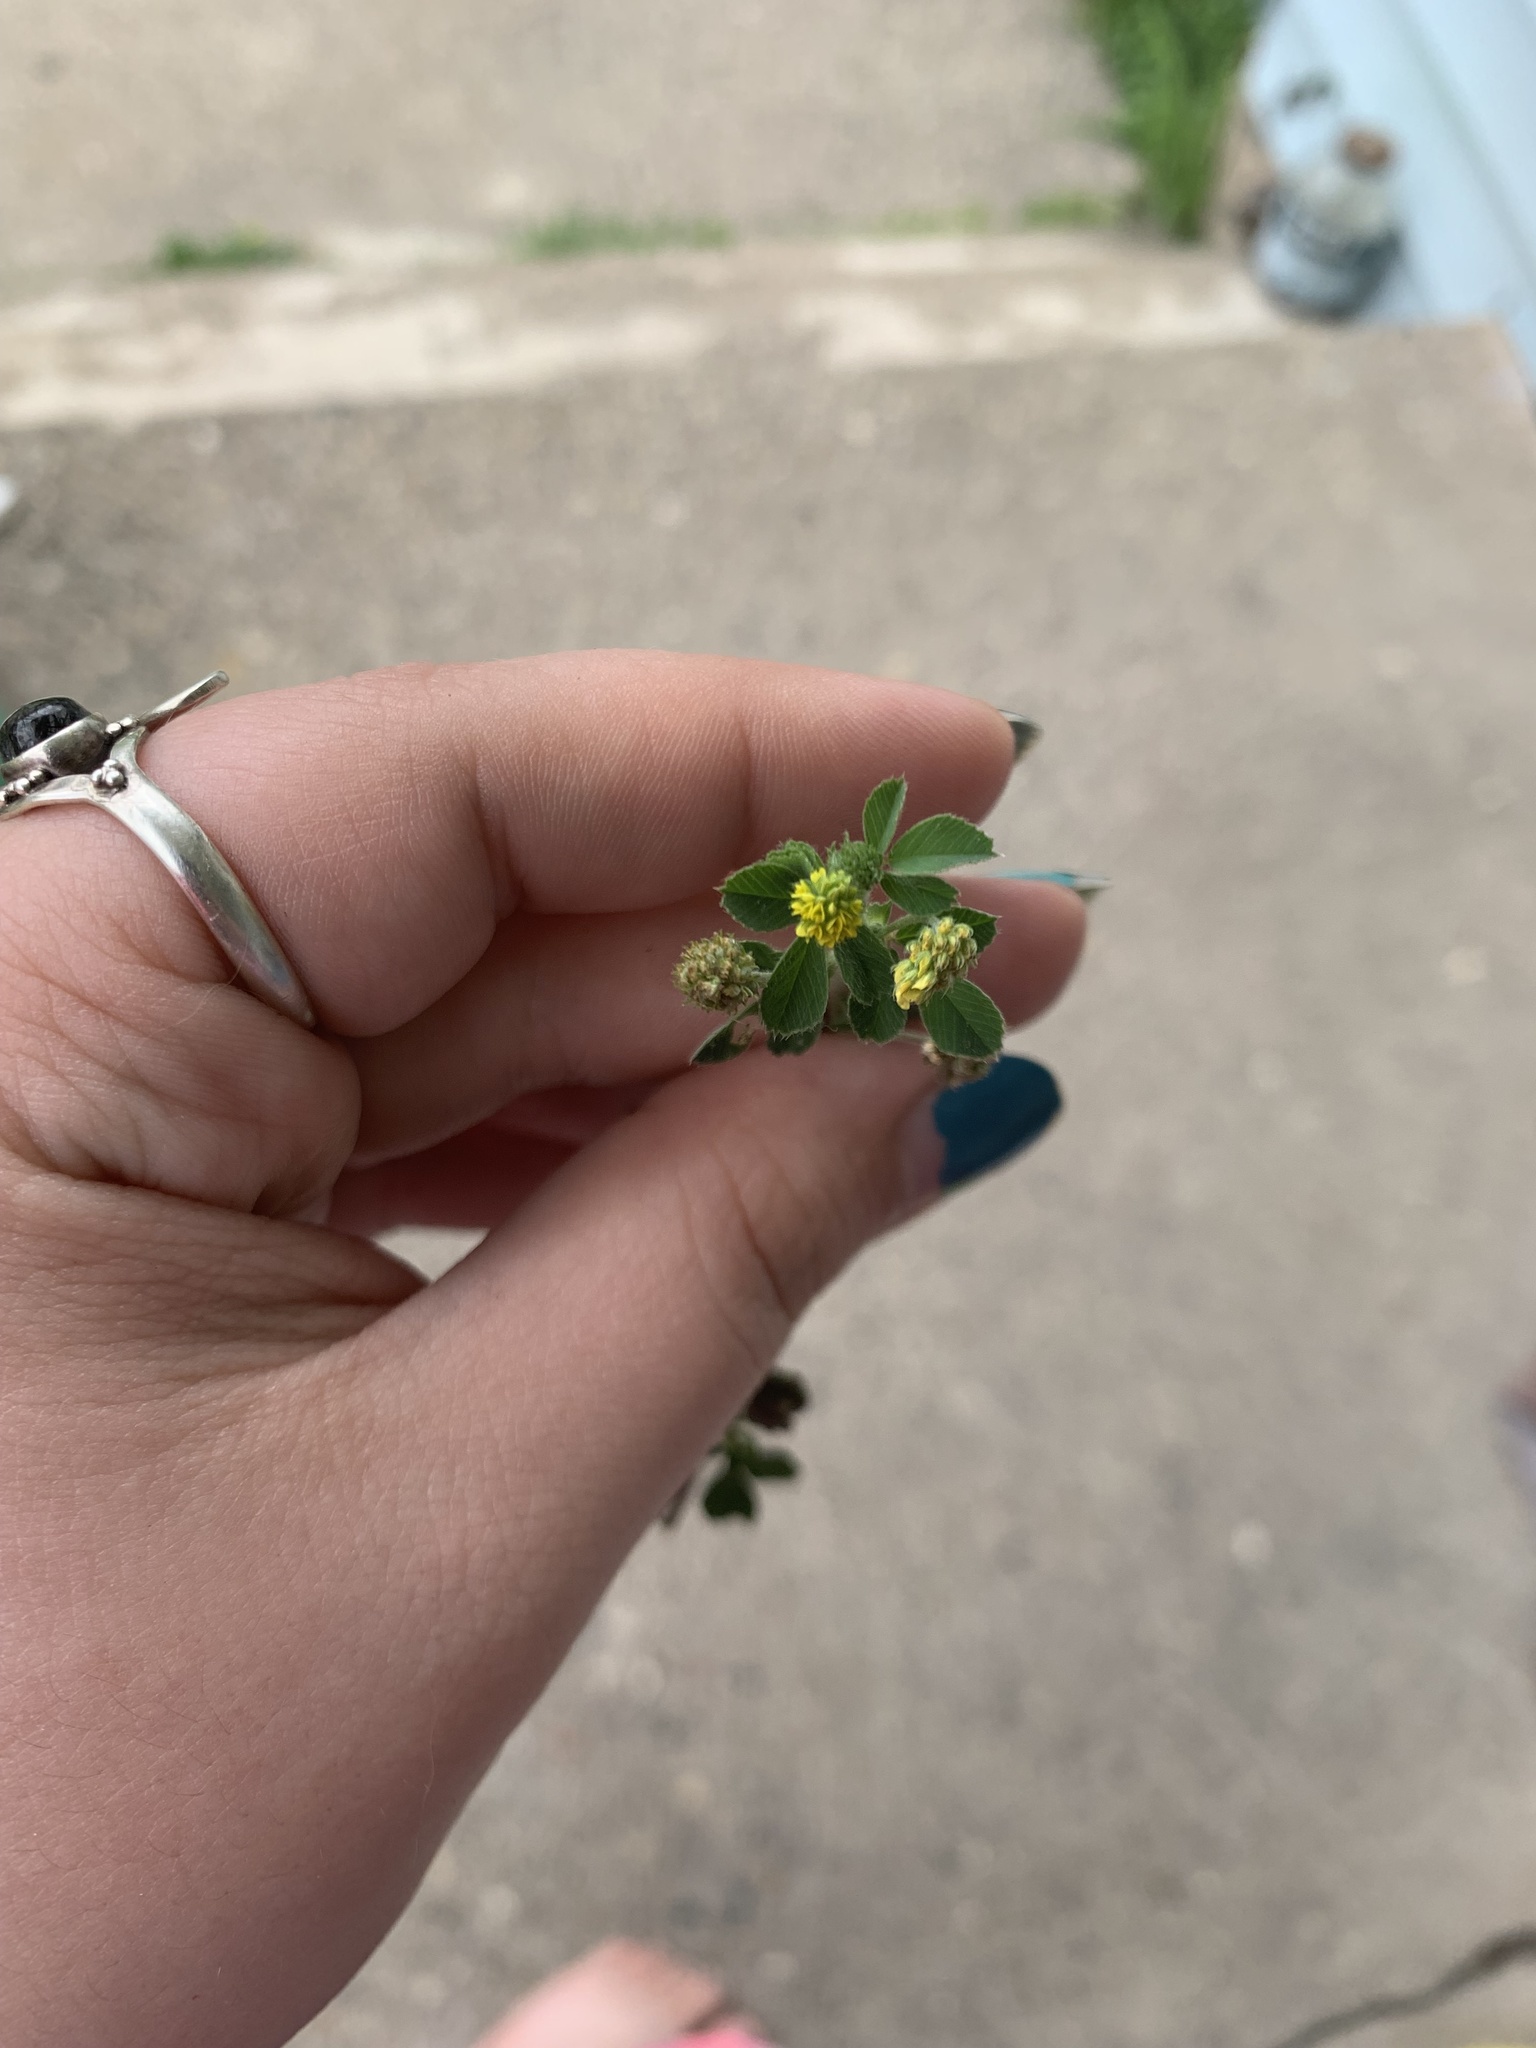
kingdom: Plantae
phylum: Tracheophyta
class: Magnoliopsida
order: Fabales
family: Fabaceae
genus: Medicago
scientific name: Medicago lupulina
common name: Black medick
